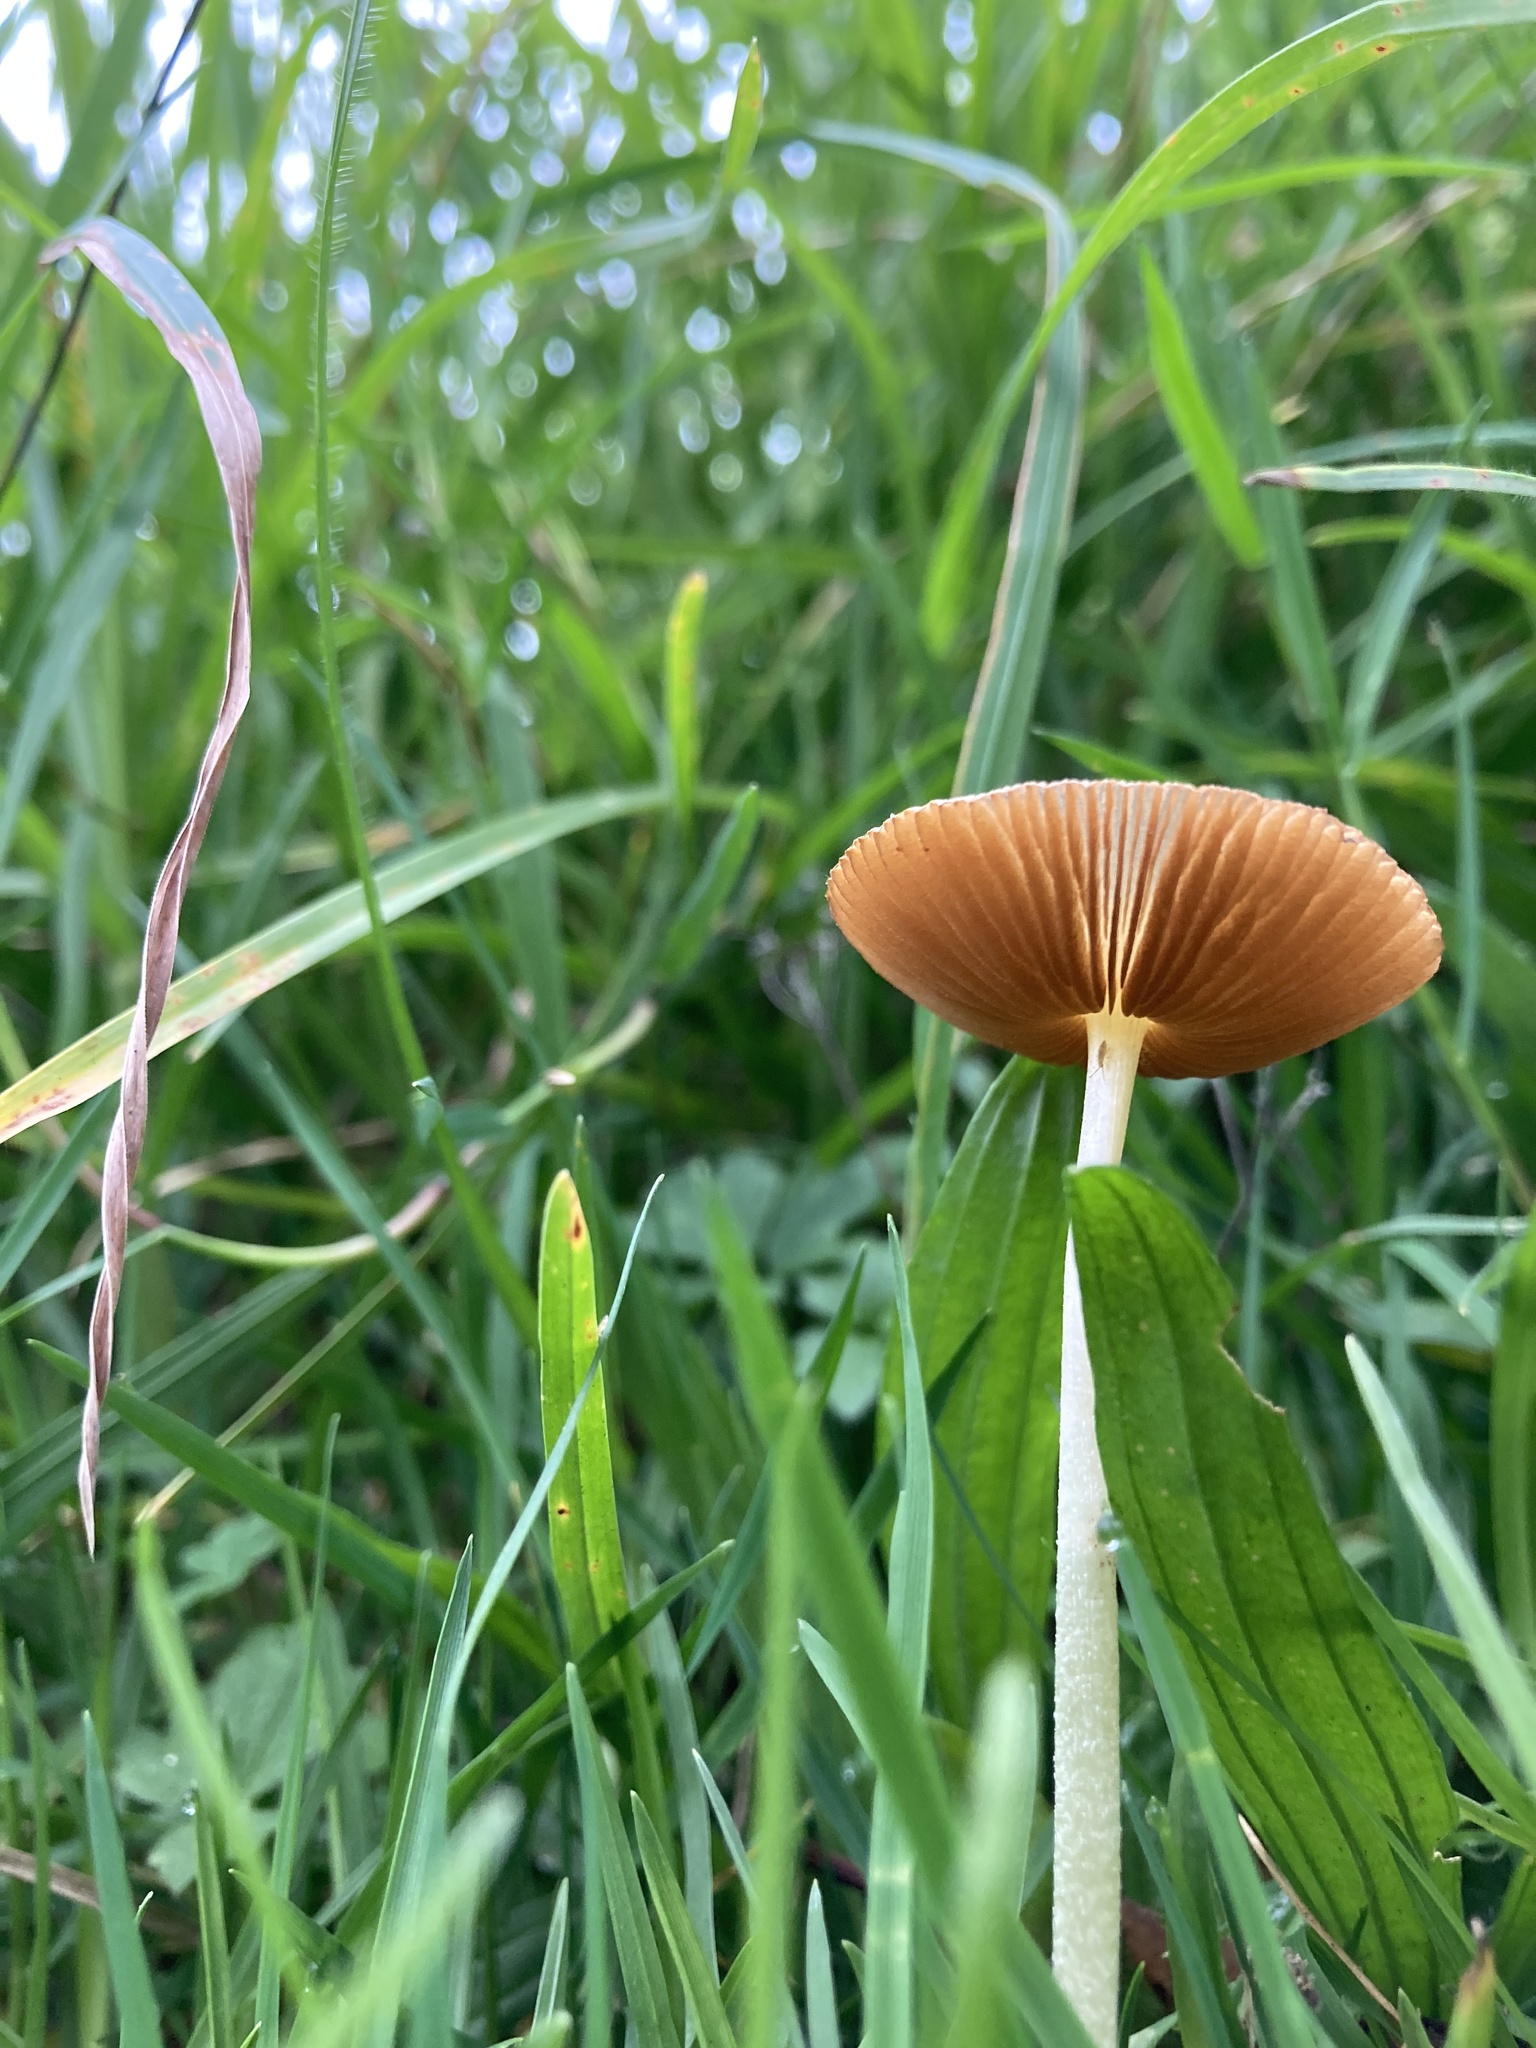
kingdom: Fungi
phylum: Basidiomycota
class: Agaricomycetes
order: Agaricales
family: Bolbitiaceae
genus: Bolbitius
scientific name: Bolbitius titubans
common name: Yellow fieldcap
